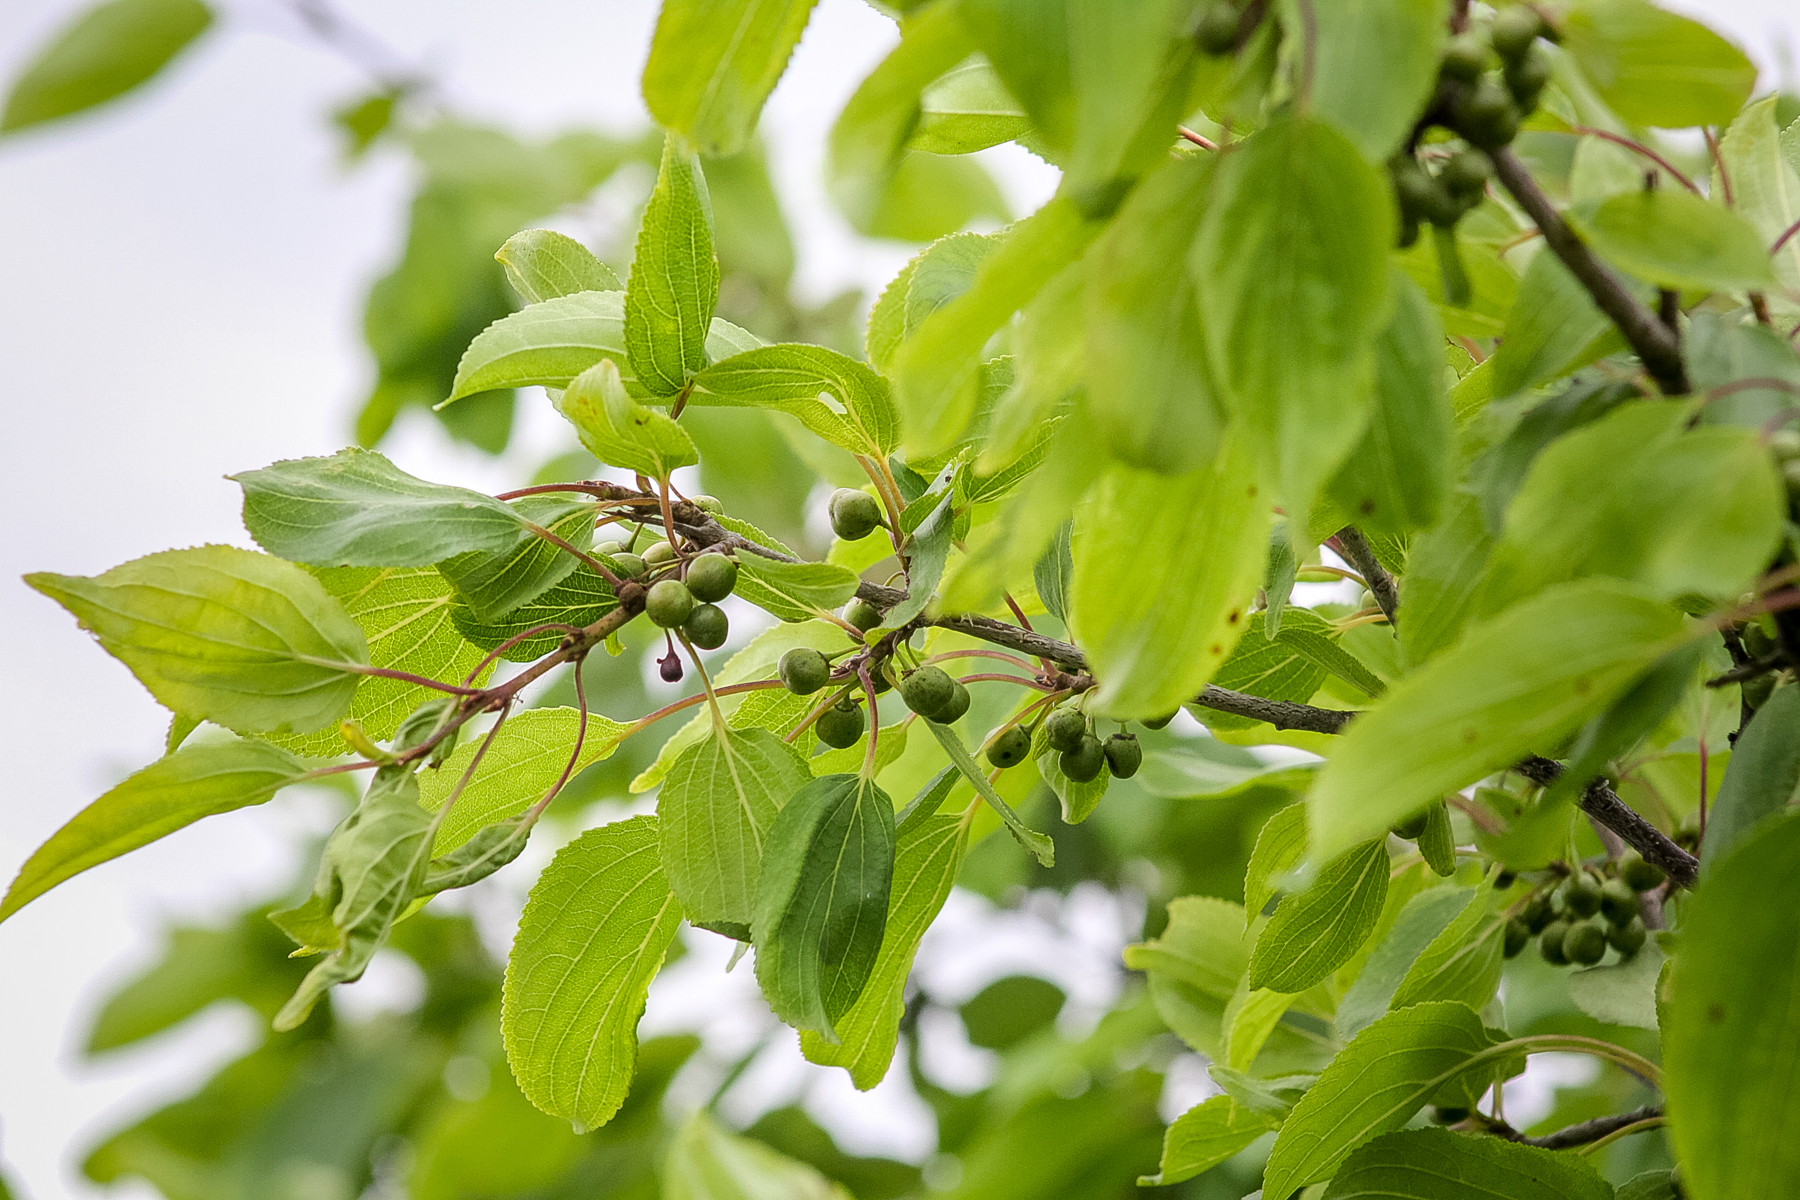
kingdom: Plantae
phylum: Tracheophyta
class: Magnoliopsida
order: Rosales
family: Rhamnaceae
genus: Rhamnus
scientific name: Rhamnus cathartica
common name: Common buckthorn
